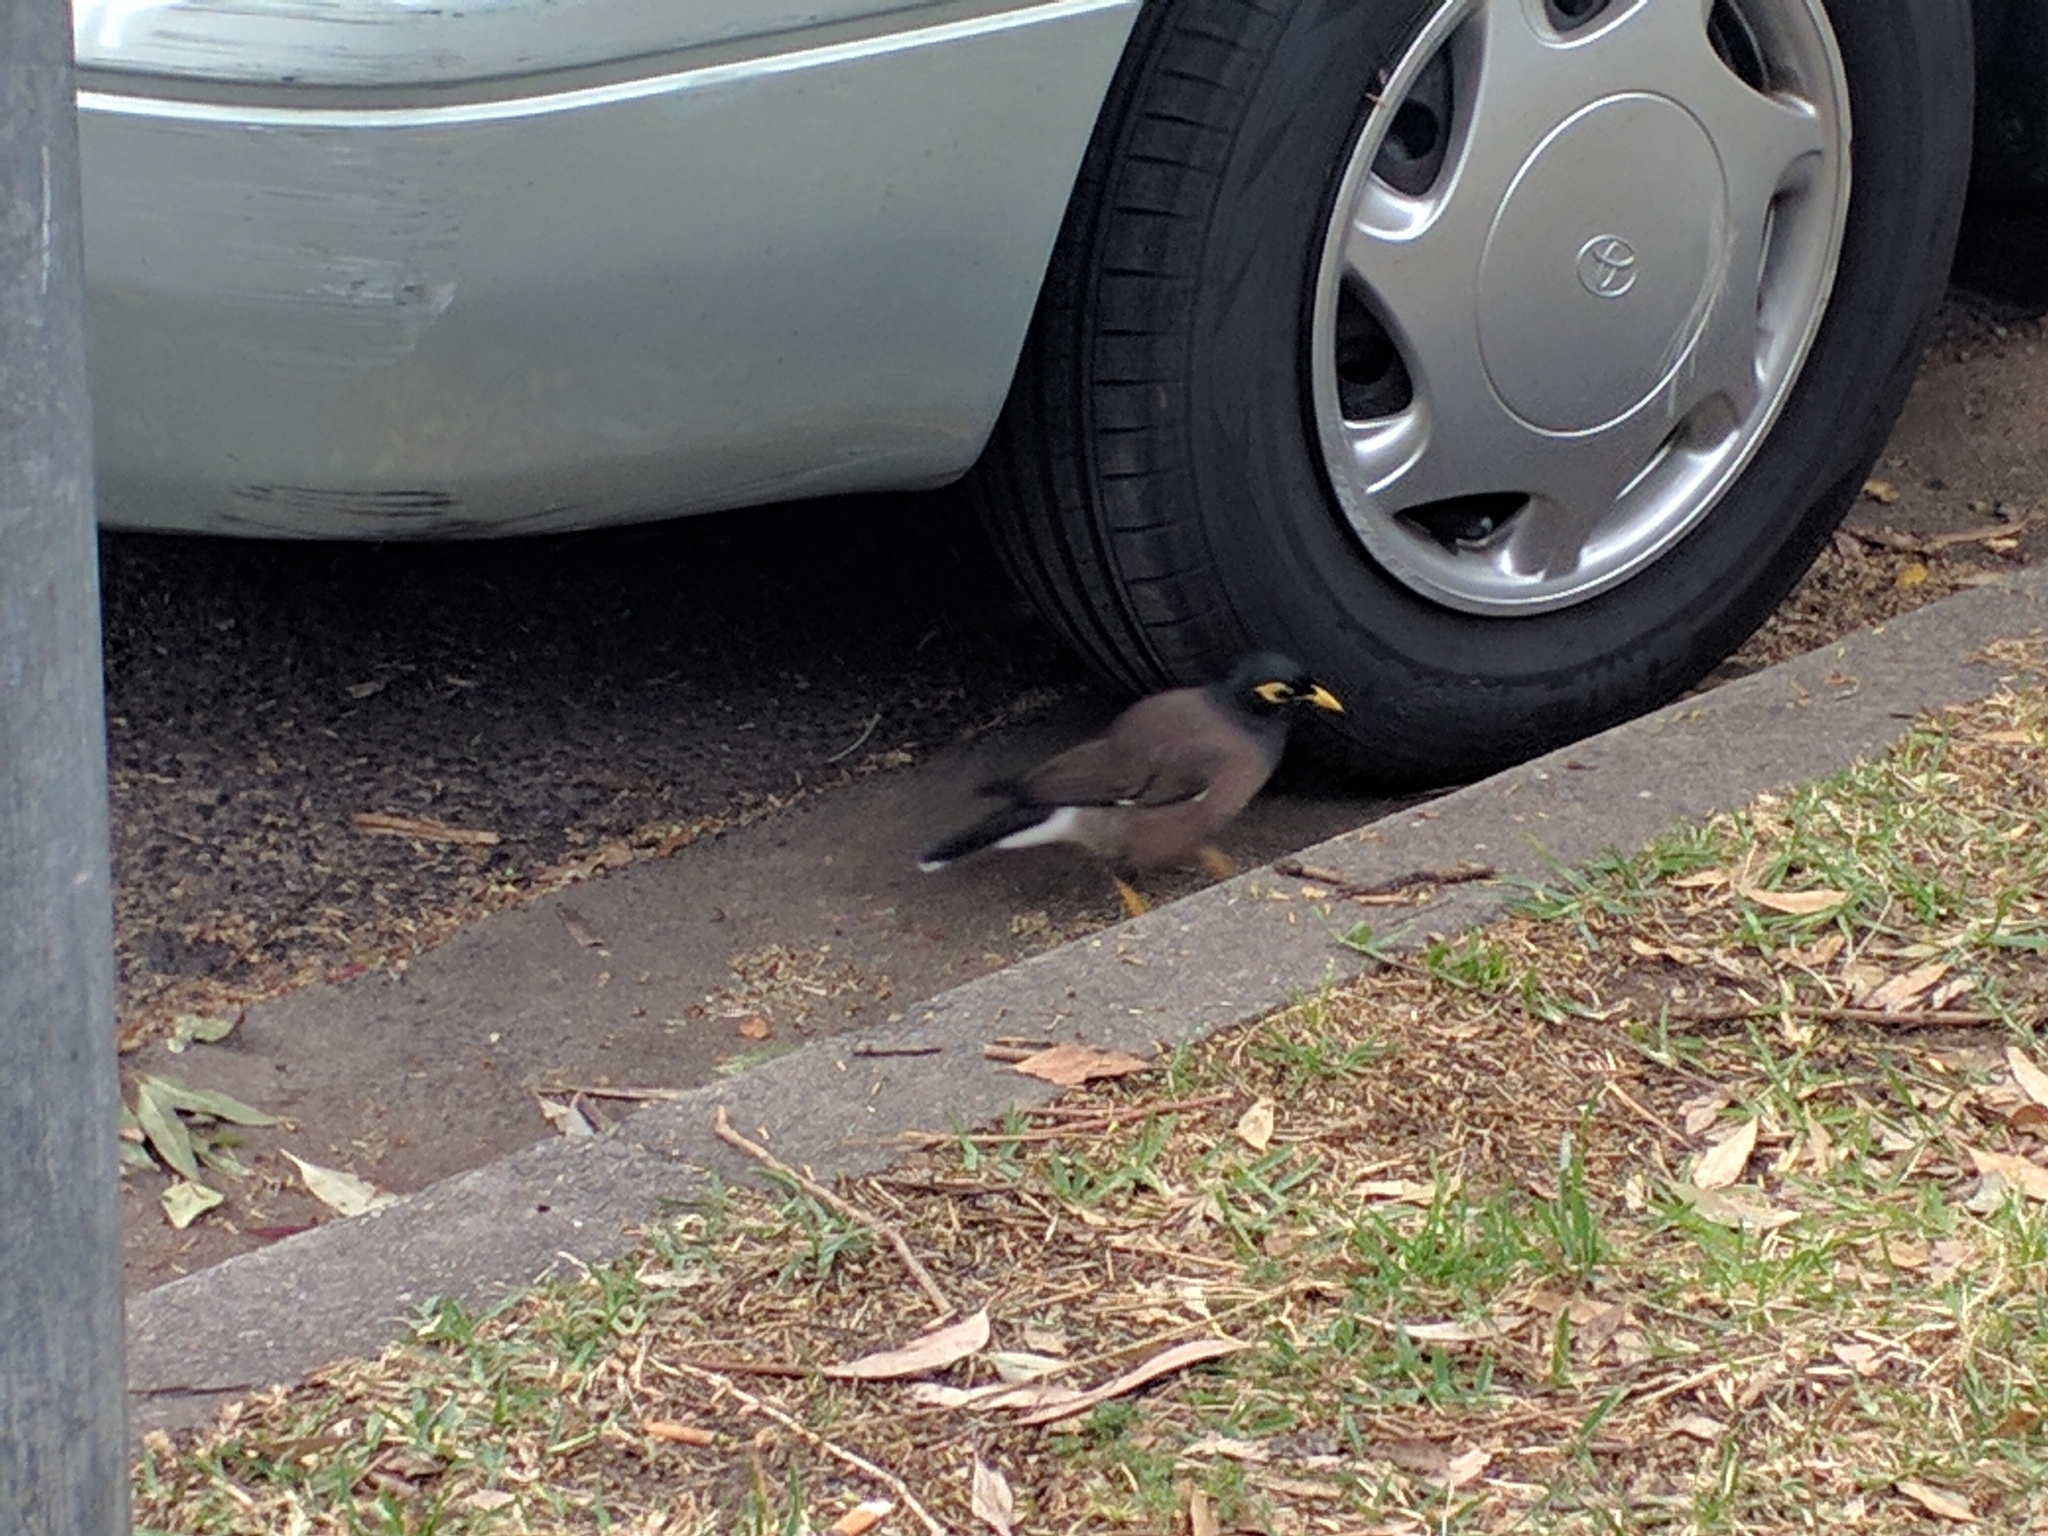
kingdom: Animalia
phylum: Chordata
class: Aves
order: Passeriformes
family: Sturnidae
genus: Acridotheres
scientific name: Acridotheres tristis
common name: Common myna
